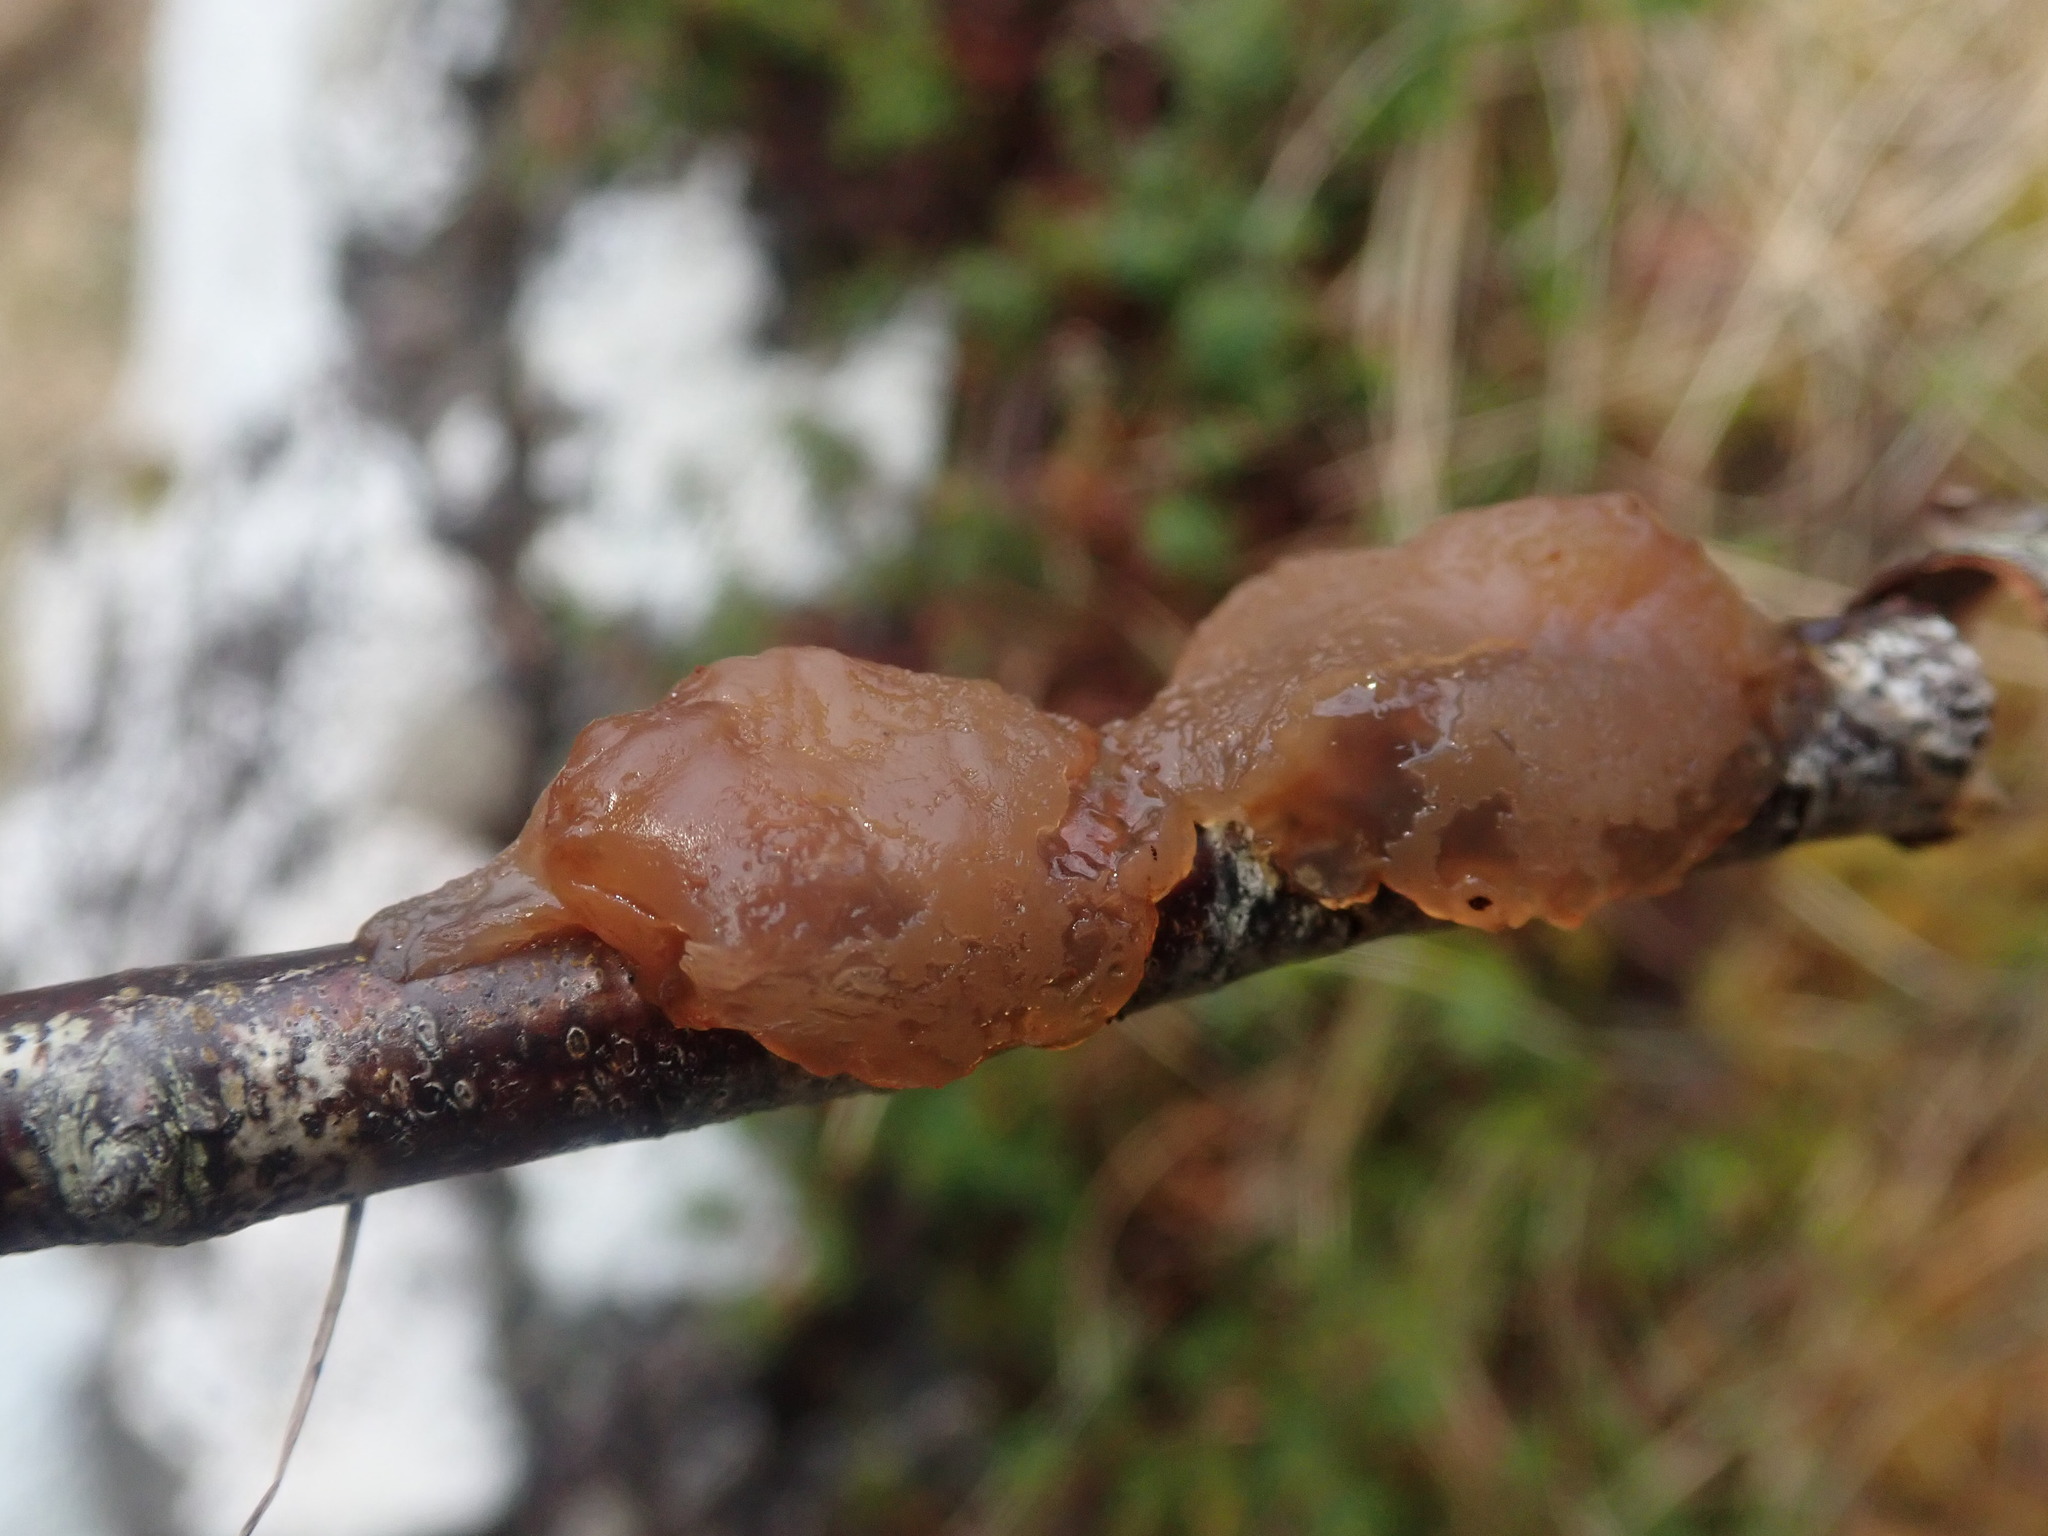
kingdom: Fungi
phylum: Basidiomycota
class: Agaricomycetes
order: Auriculariales
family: Auriculariaceae
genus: Exidia
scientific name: Exidia repanda
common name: Birch jelly
